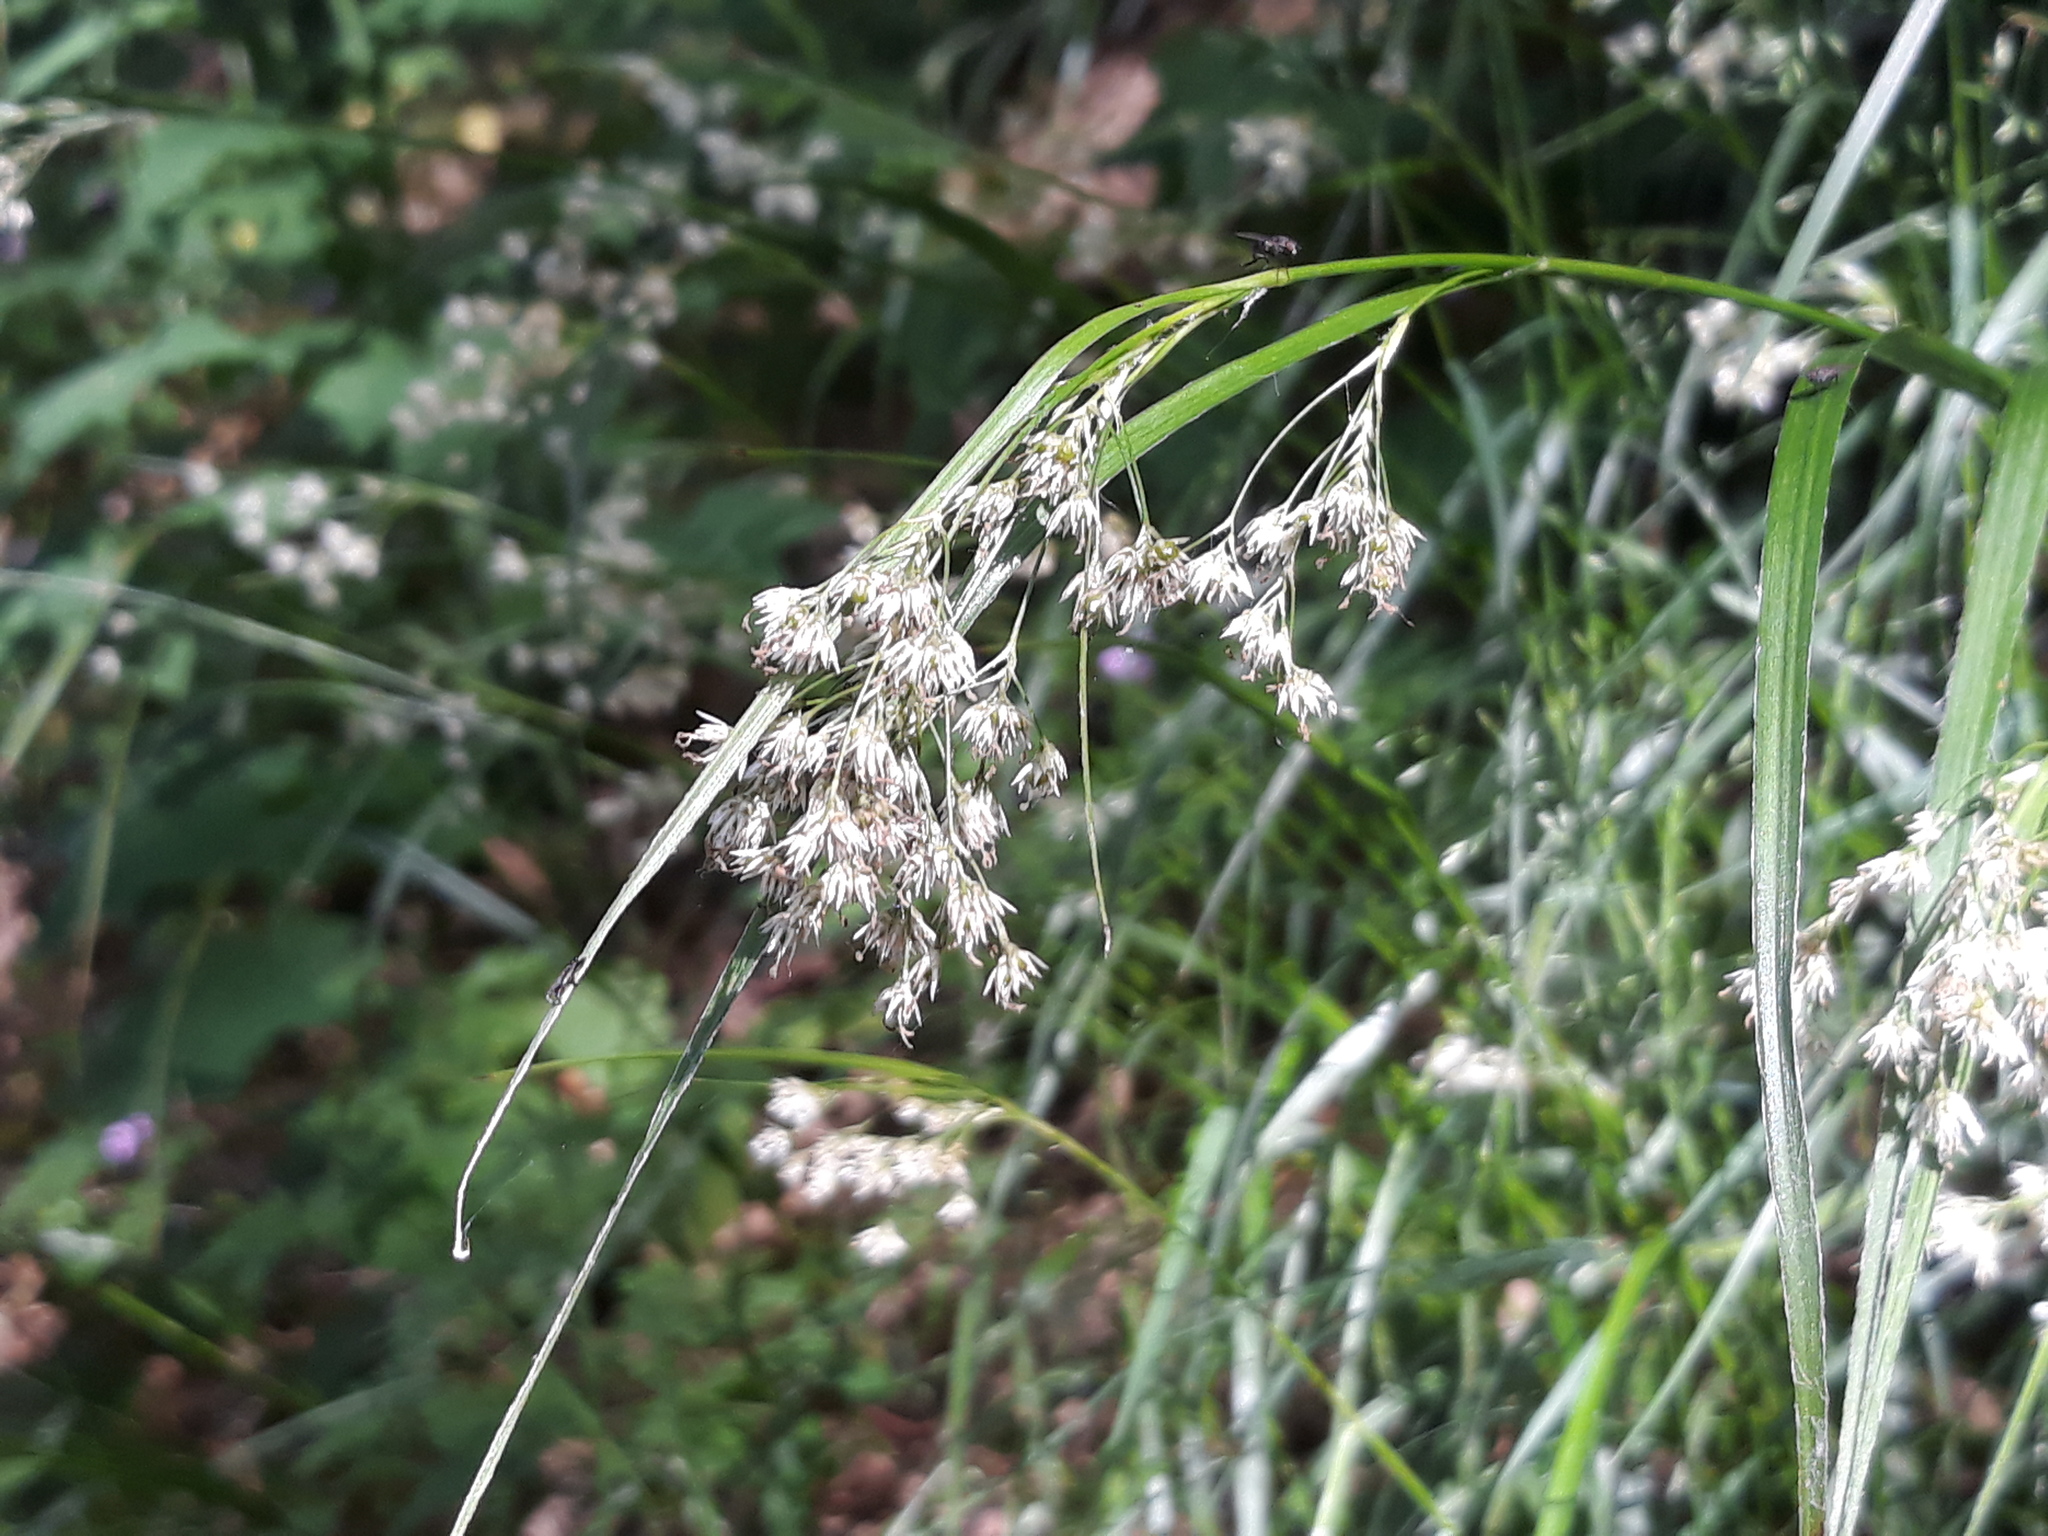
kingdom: Plantae
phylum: Tracheophyta
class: Liliopsida
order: Poales
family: Juncaceae
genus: Luzula
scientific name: Luzula luzuloides
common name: White wood-rush
